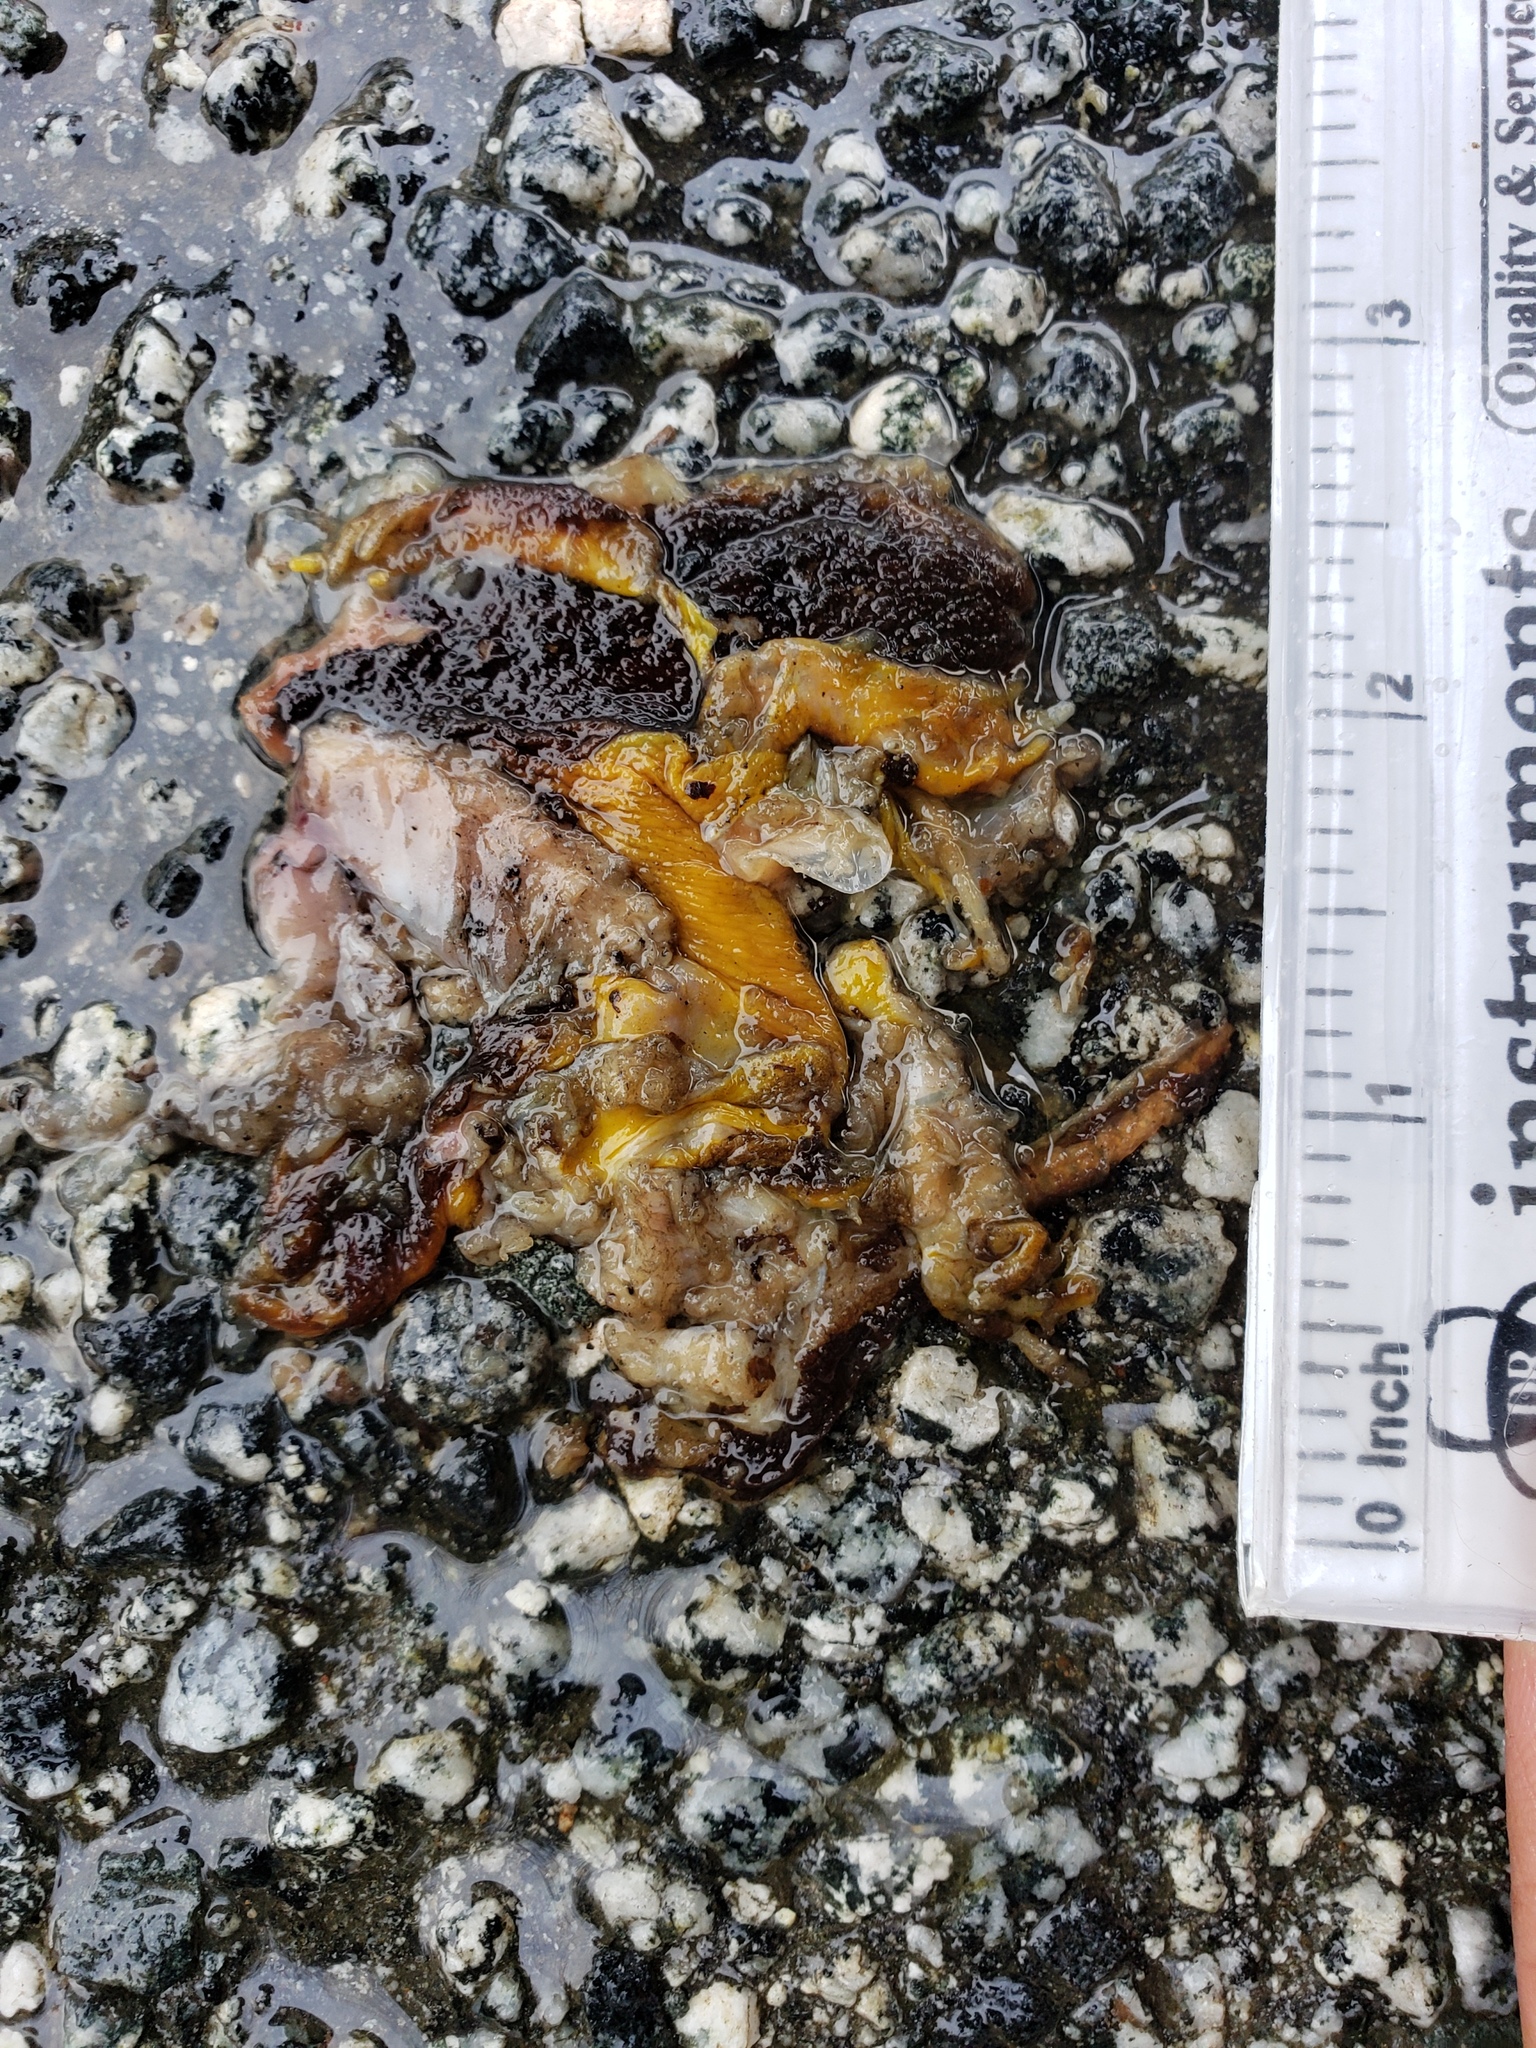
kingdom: Animalia
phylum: Chordata
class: Amphibia
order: Caudata
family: Salamandridae
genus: Taricha
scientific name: Taricha
